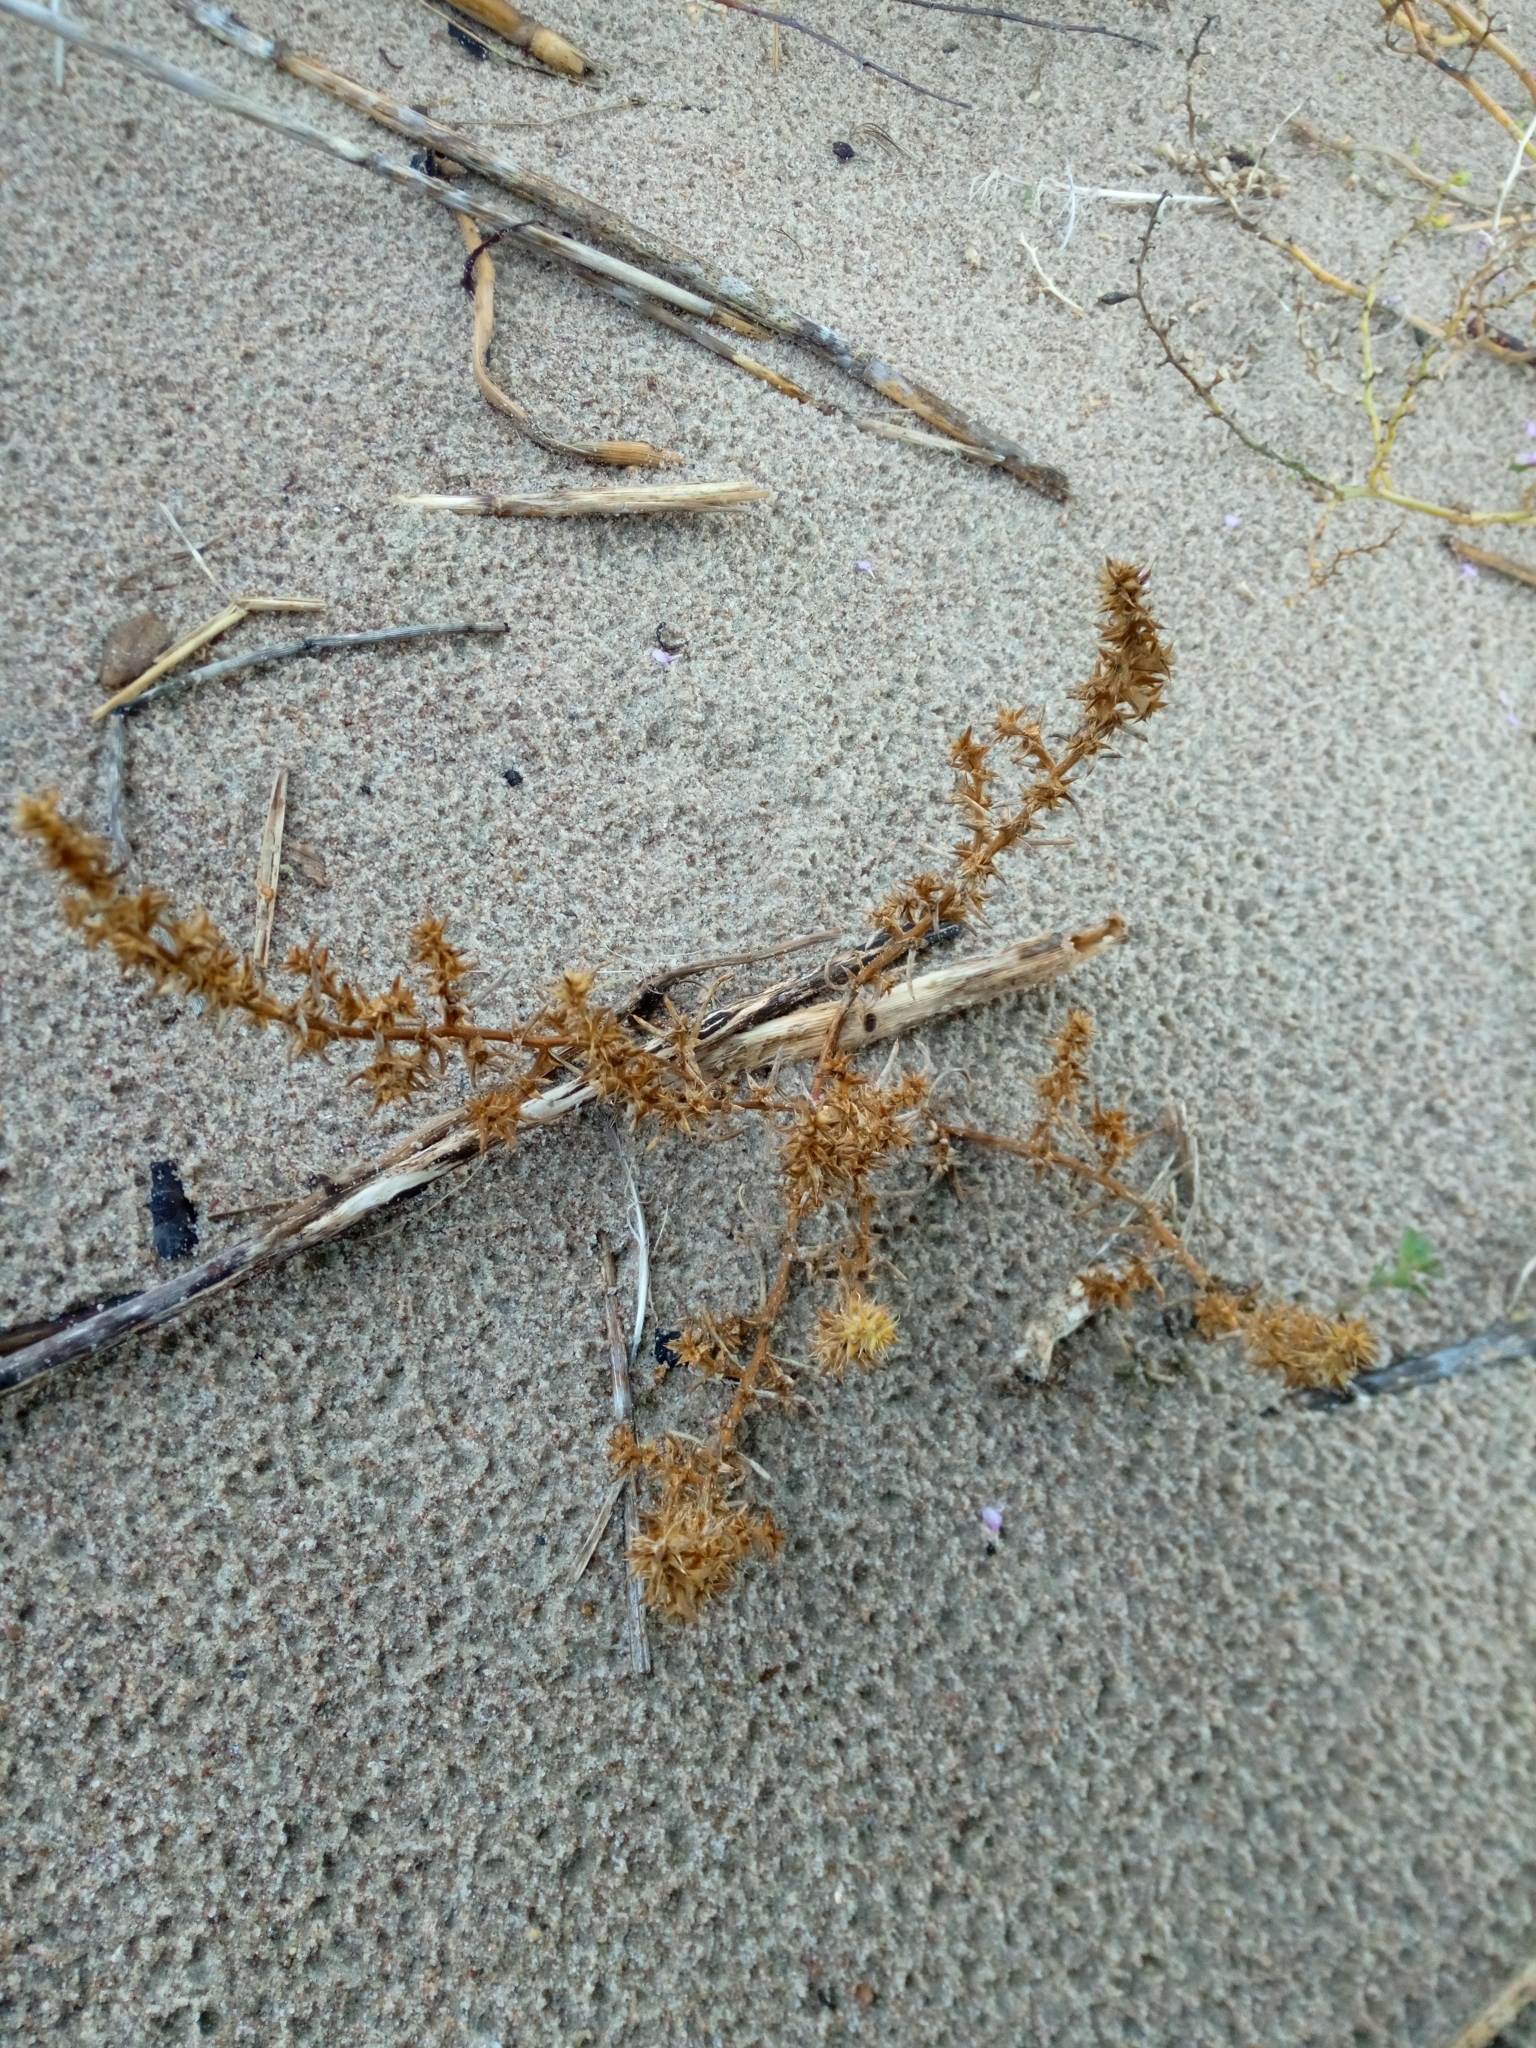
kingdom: Plantae
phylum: Tracheophyta
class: Magnoliopsida
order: Caryophyllales
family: Amaranthaceae
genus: Salsola
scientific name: Salsola kali
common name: Saltwort
